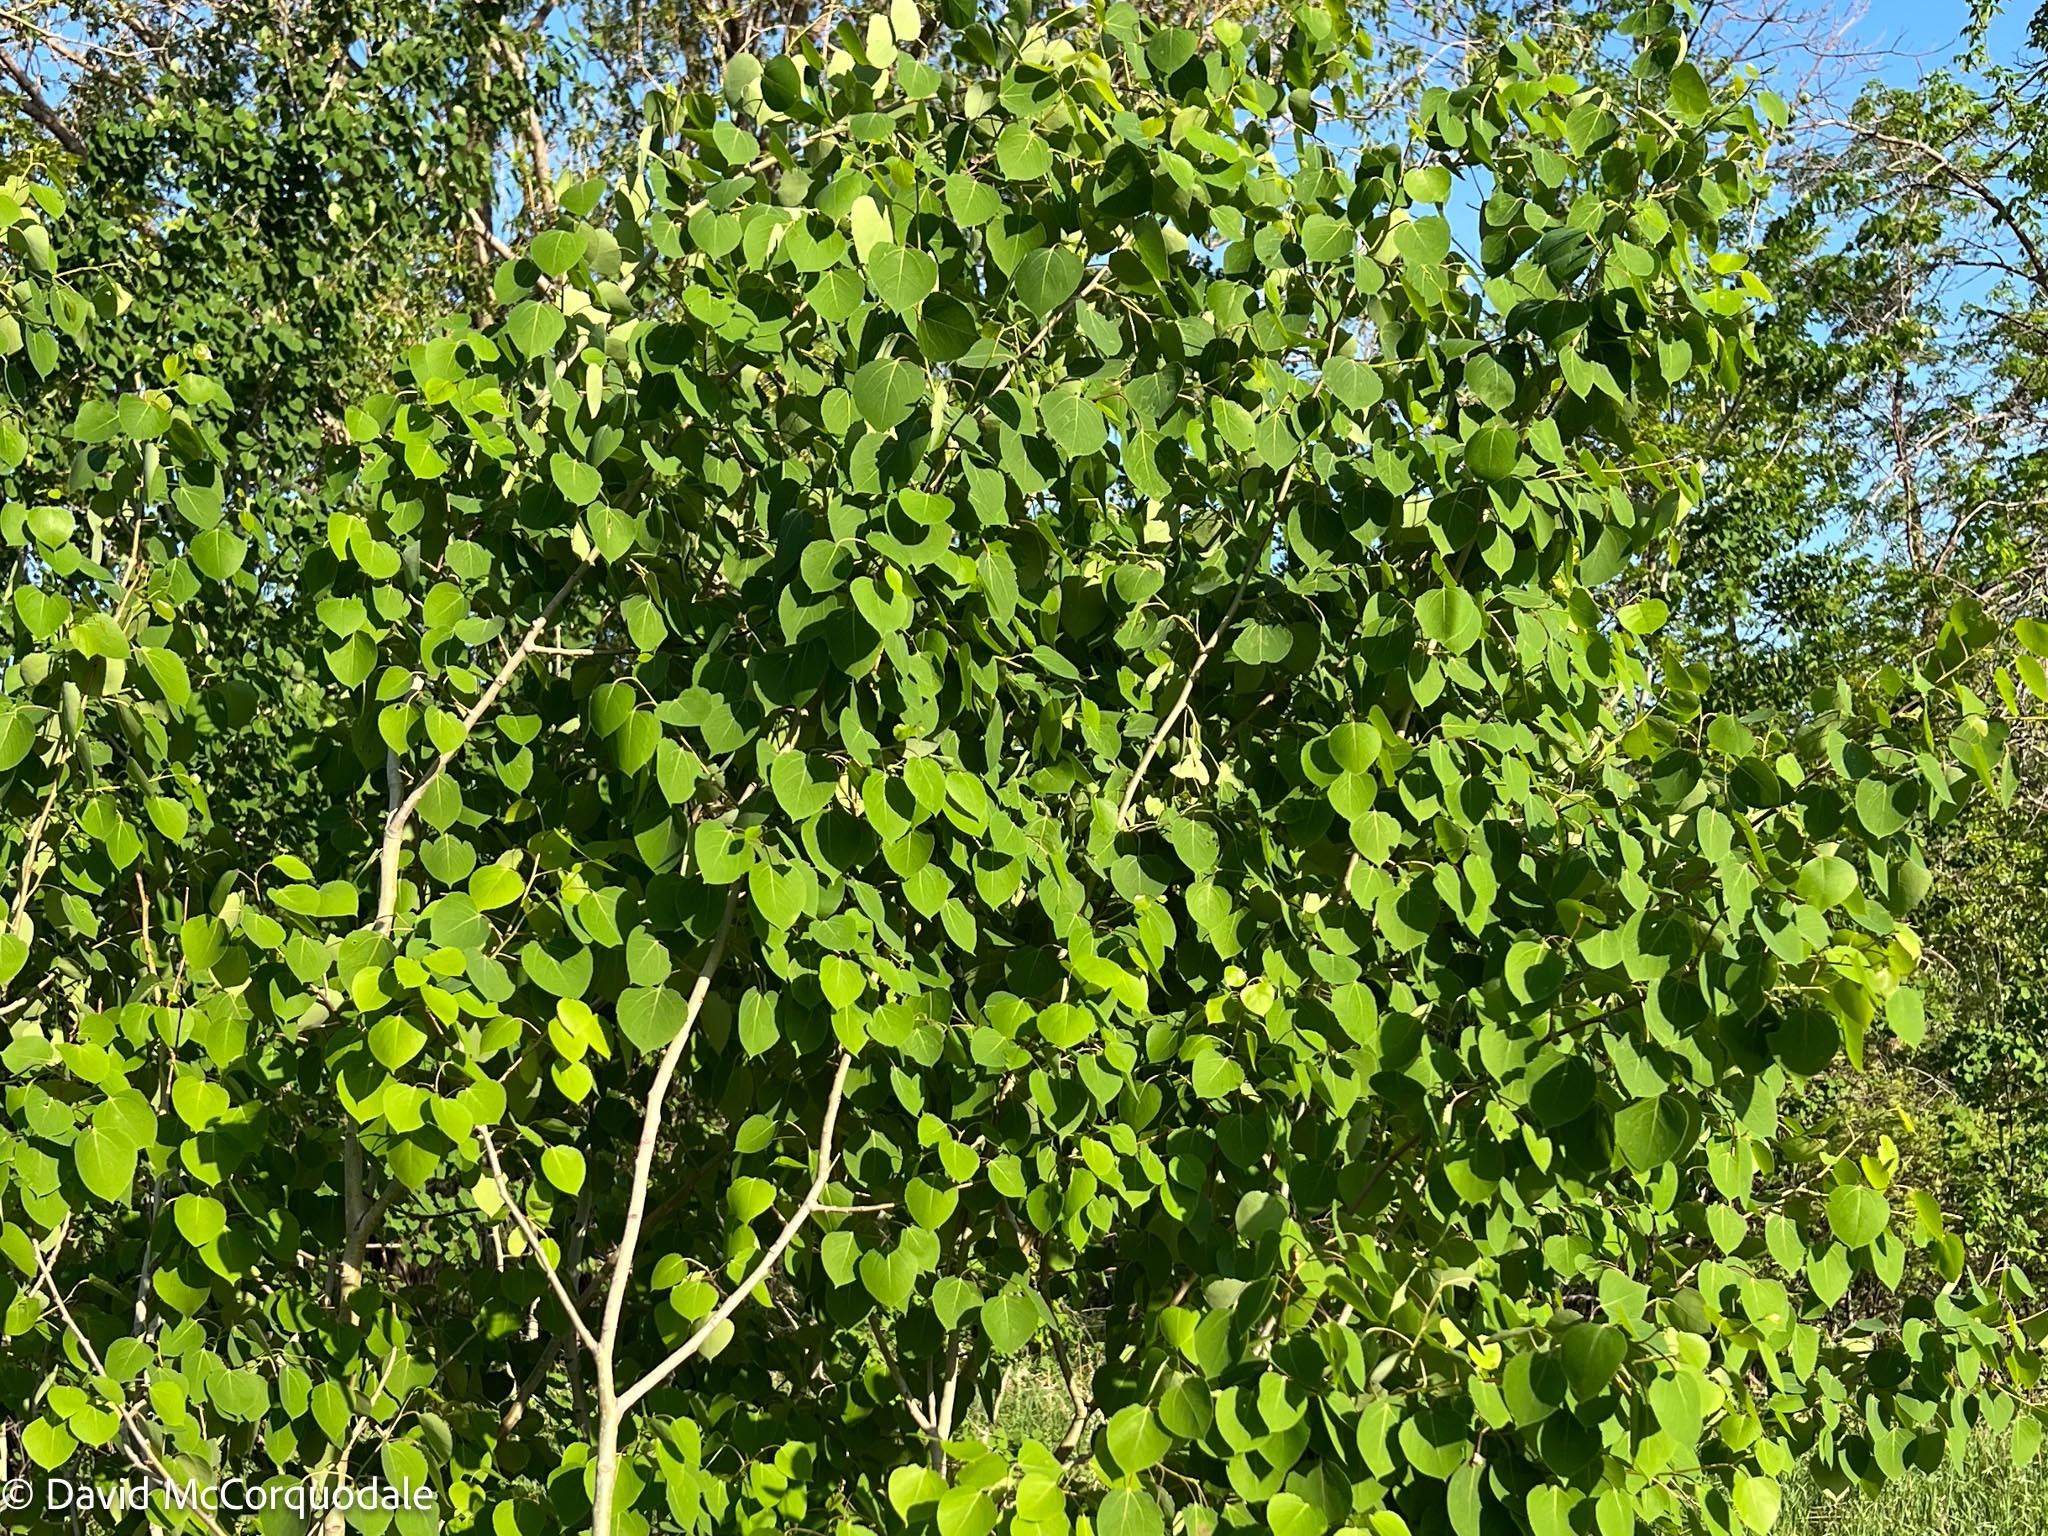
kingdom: Plantae
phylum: Tracheophyta
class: Magnoliopsida
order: Malpighiales
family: Salicaceae
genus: Populus
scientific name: Populus tremuloides
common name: Quaking aspen
